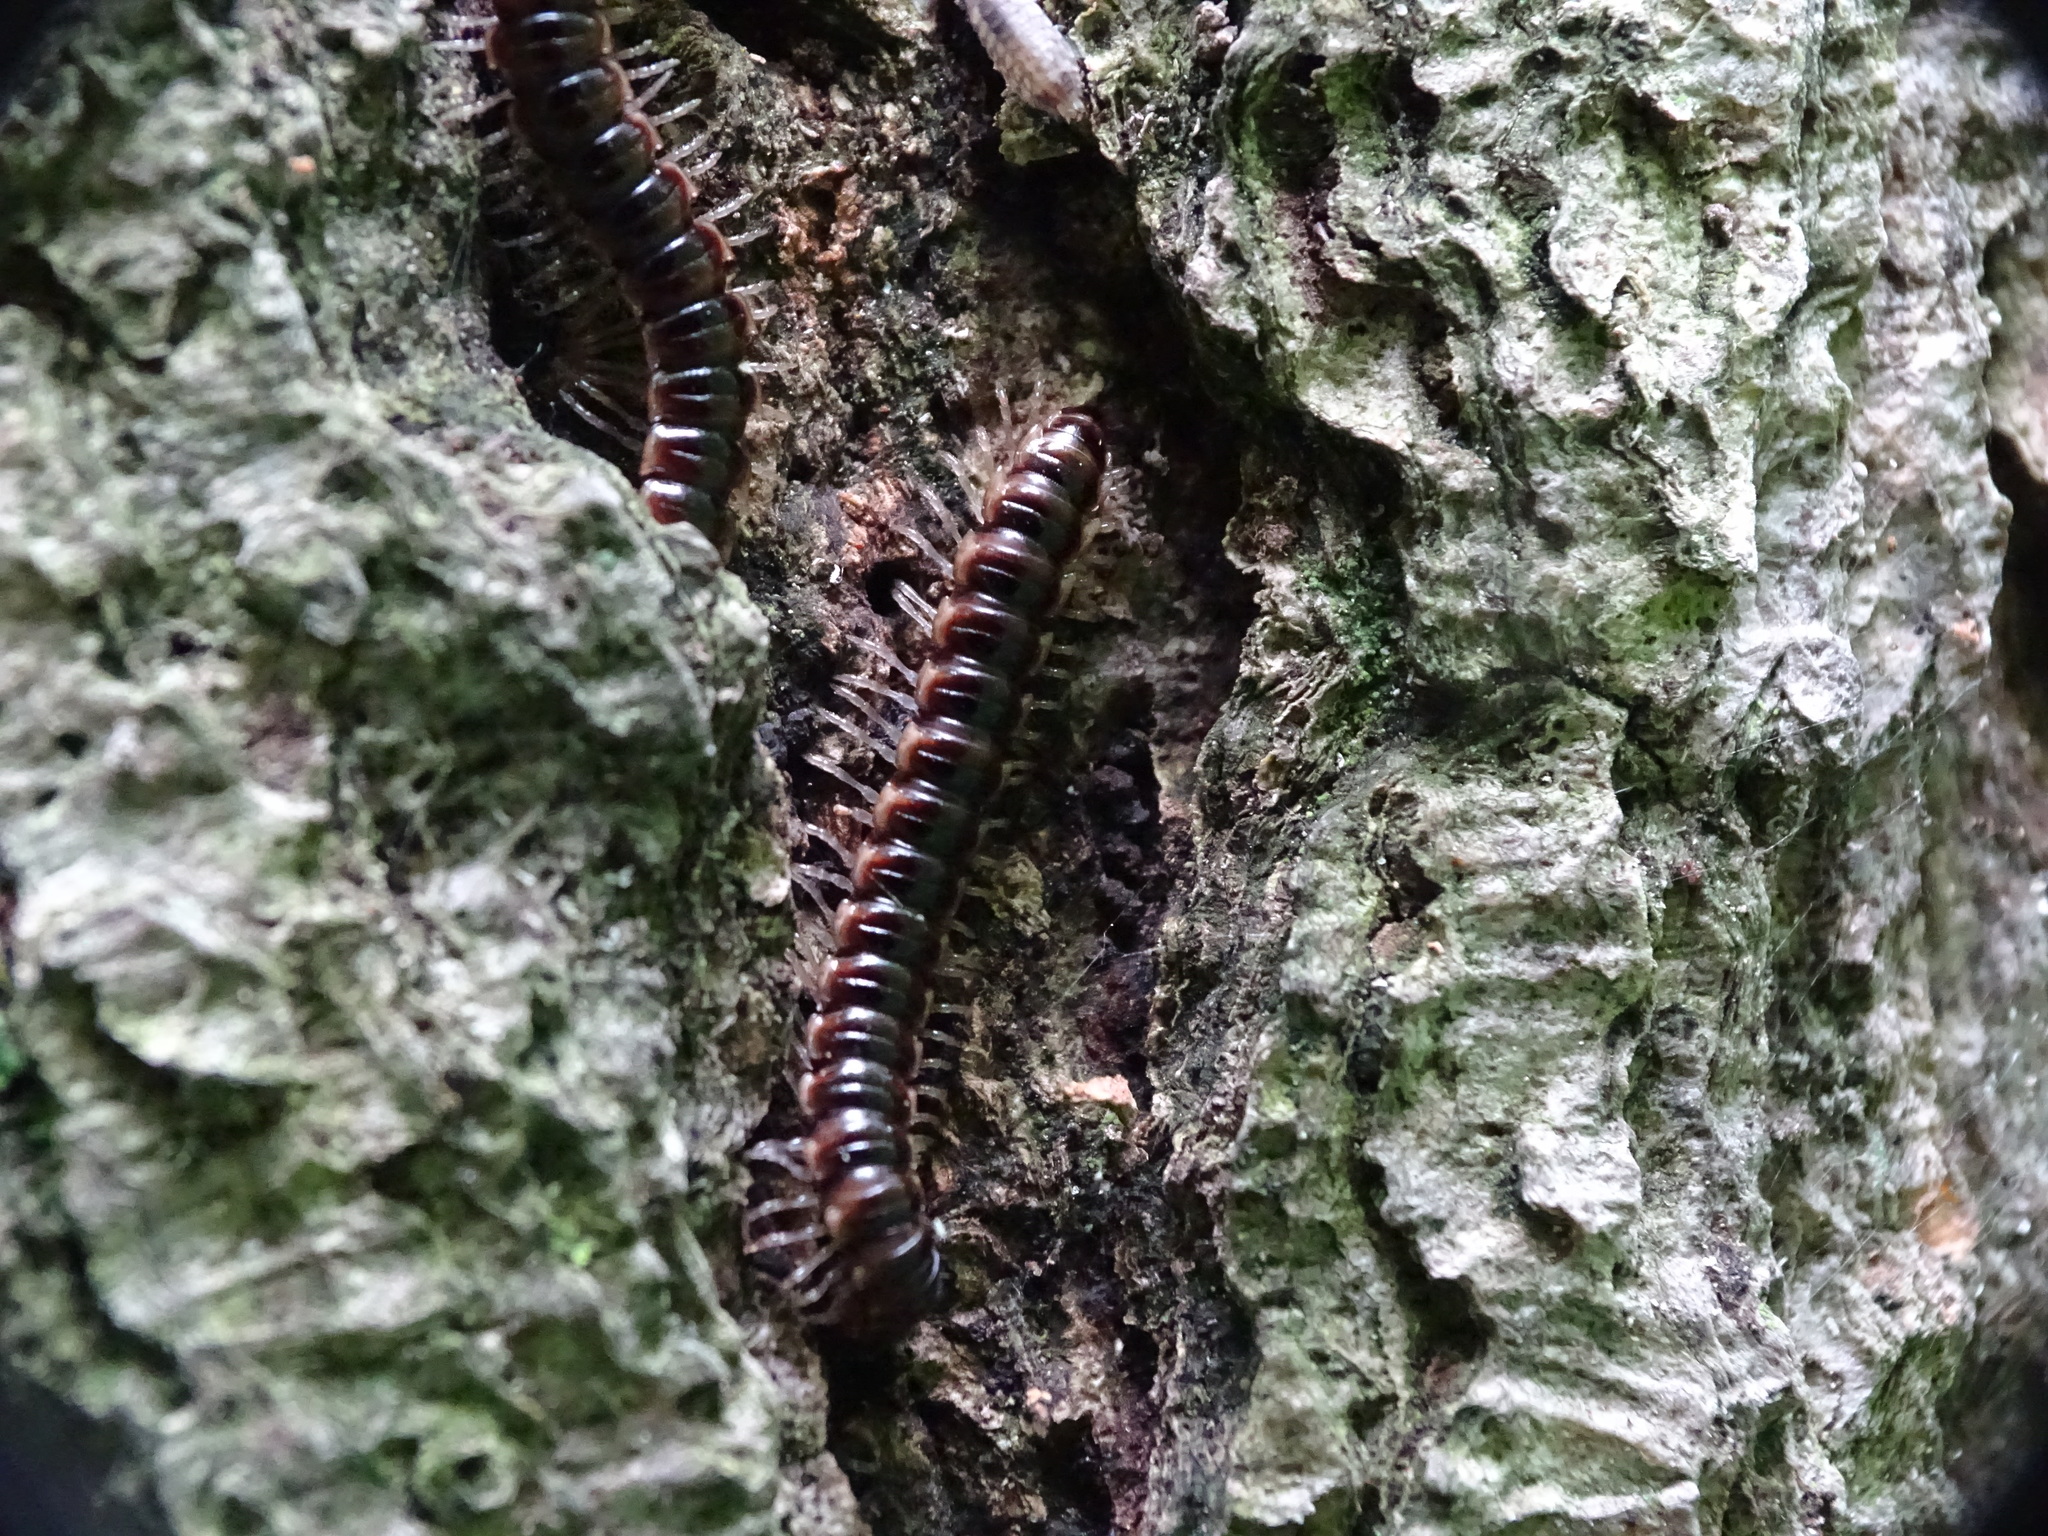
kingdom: Animalia
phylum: Arthropoda
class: Diplopoda
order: Polydesmida
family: Paradoxosomatidae
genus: Oxidus
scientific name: Oxidus gracilis
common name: Greenhouse millipede
